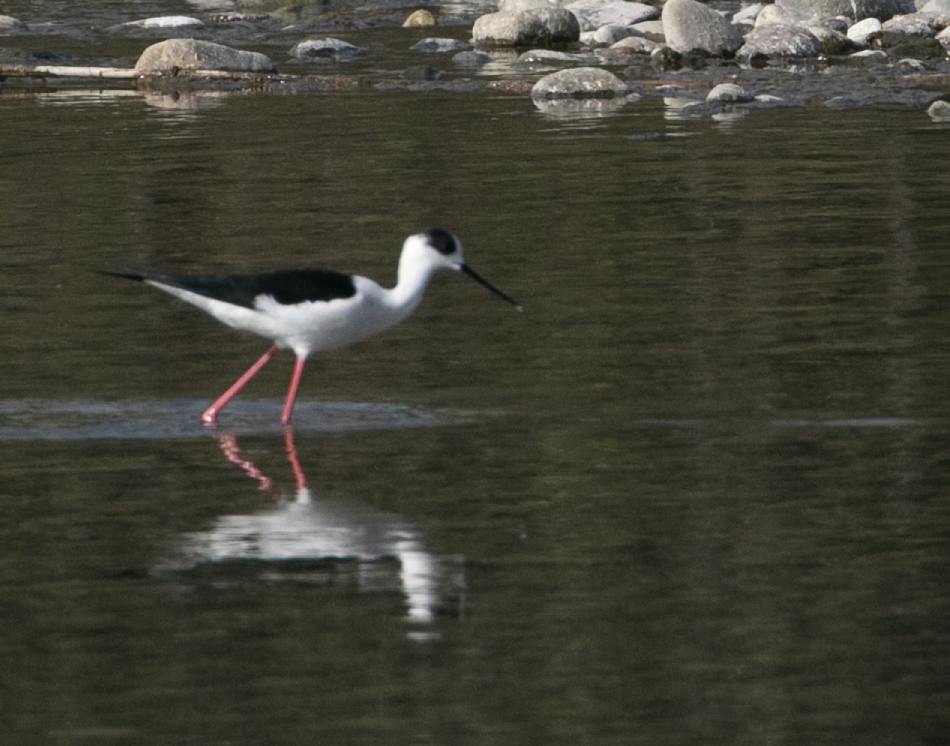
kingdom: Animalia
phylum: Chordata
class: Aves
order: Charadriiformes
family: Recurvirostridae
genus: Himantopus
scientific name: Himantopus himantopus
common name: Black-winged stilt
